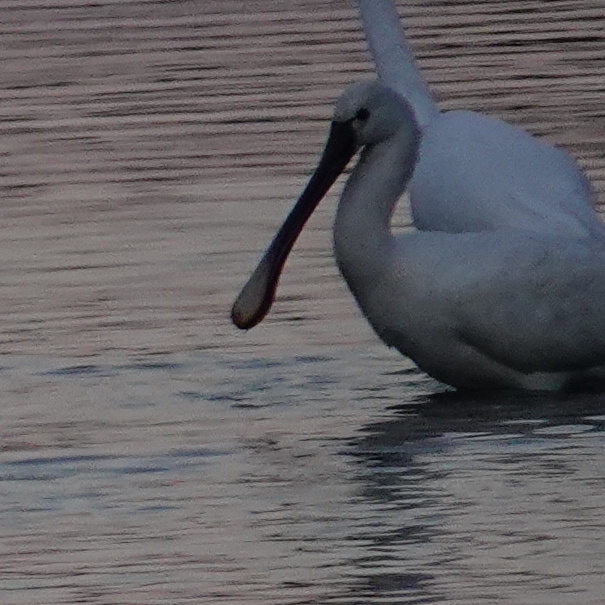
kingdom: Animalia
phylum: Chordata
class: Aves
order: Pelecaniformes
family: Threskiornithidae
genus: Platalea
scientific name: Platalea leucorodia
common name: Eurasian spoonbill
